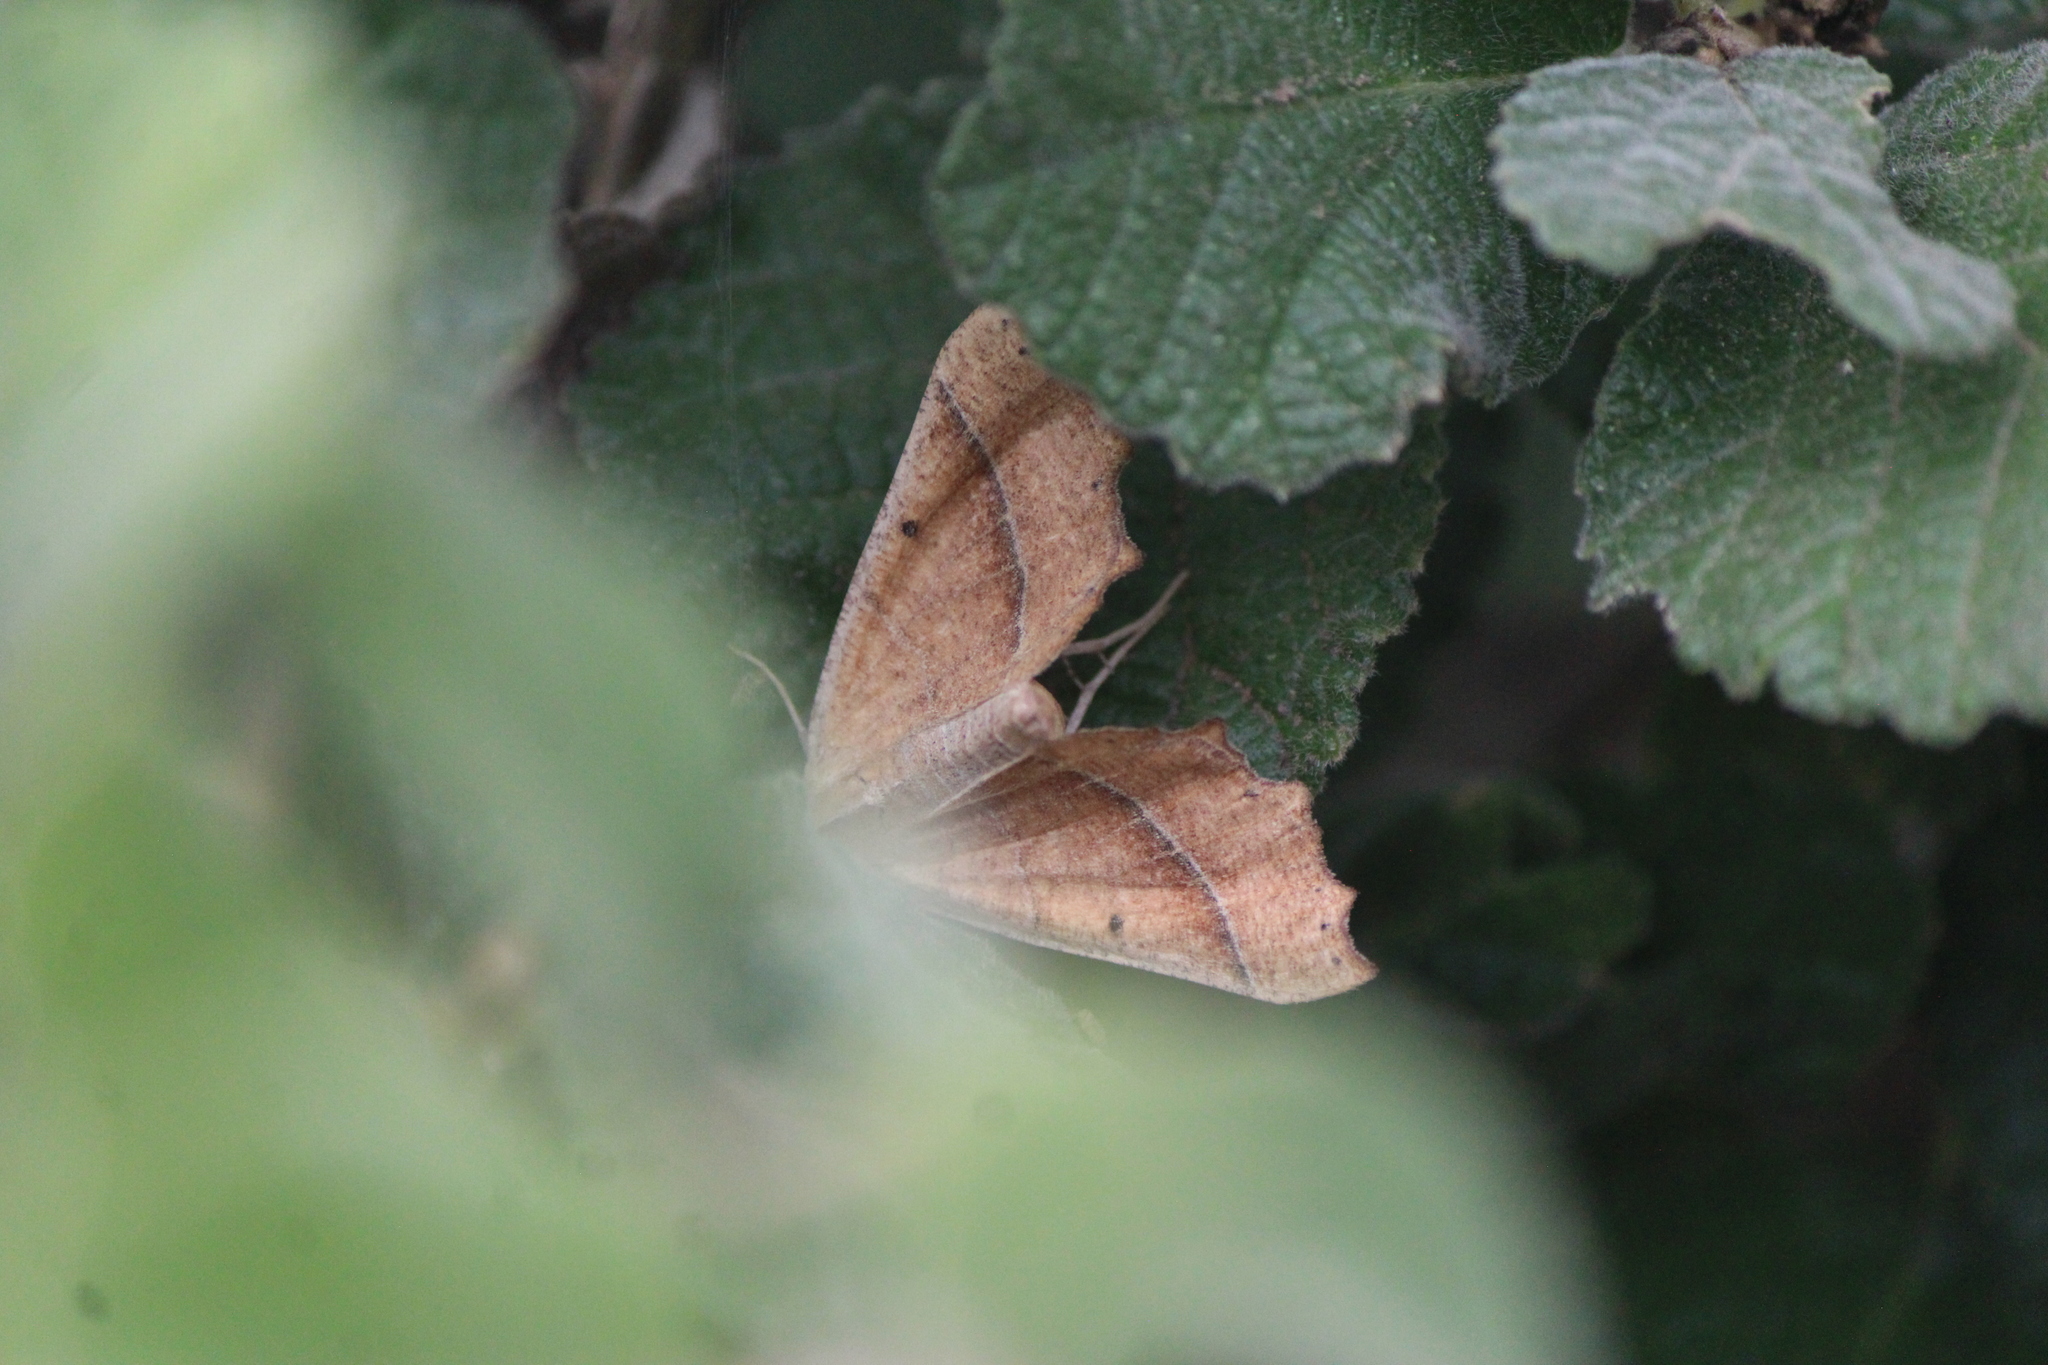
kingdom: Animalia
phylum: Arthropoda
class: Insecta
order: Lepidoptera
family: Geometridae
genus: Pero
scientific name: Pero radiosaria
